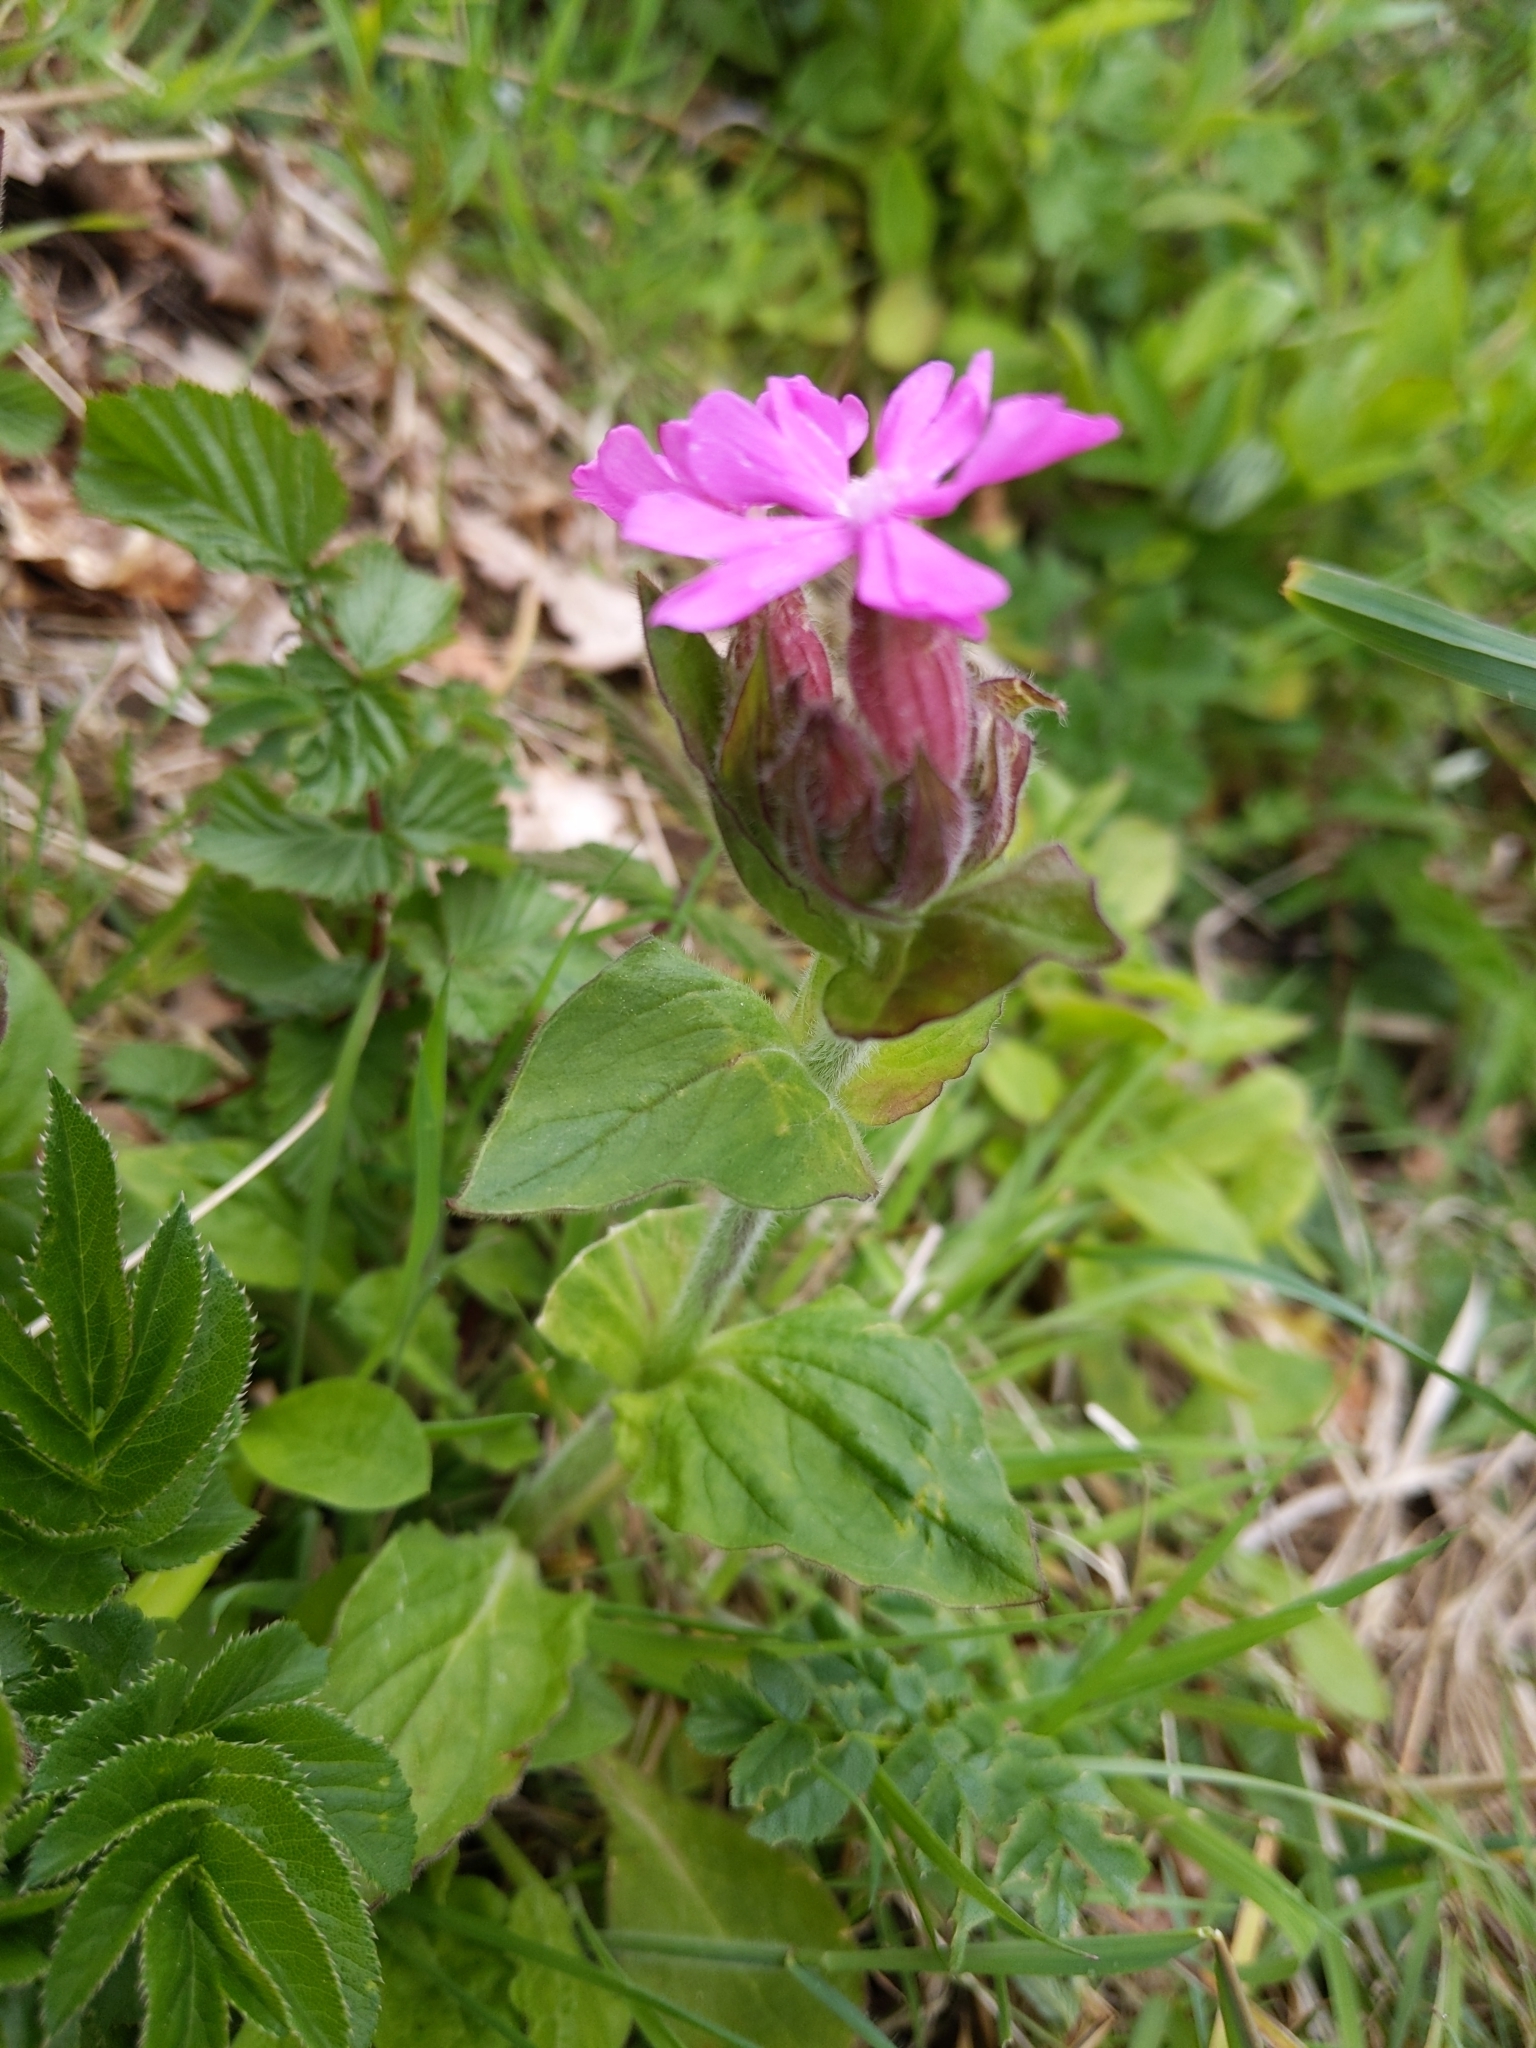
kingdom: Plantae
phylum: Tracheophyta
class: Magnoliopsida
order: Caryophyllales
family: Caryophyllaceae
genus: Silene
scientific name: Silene dioica
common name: Red campion
